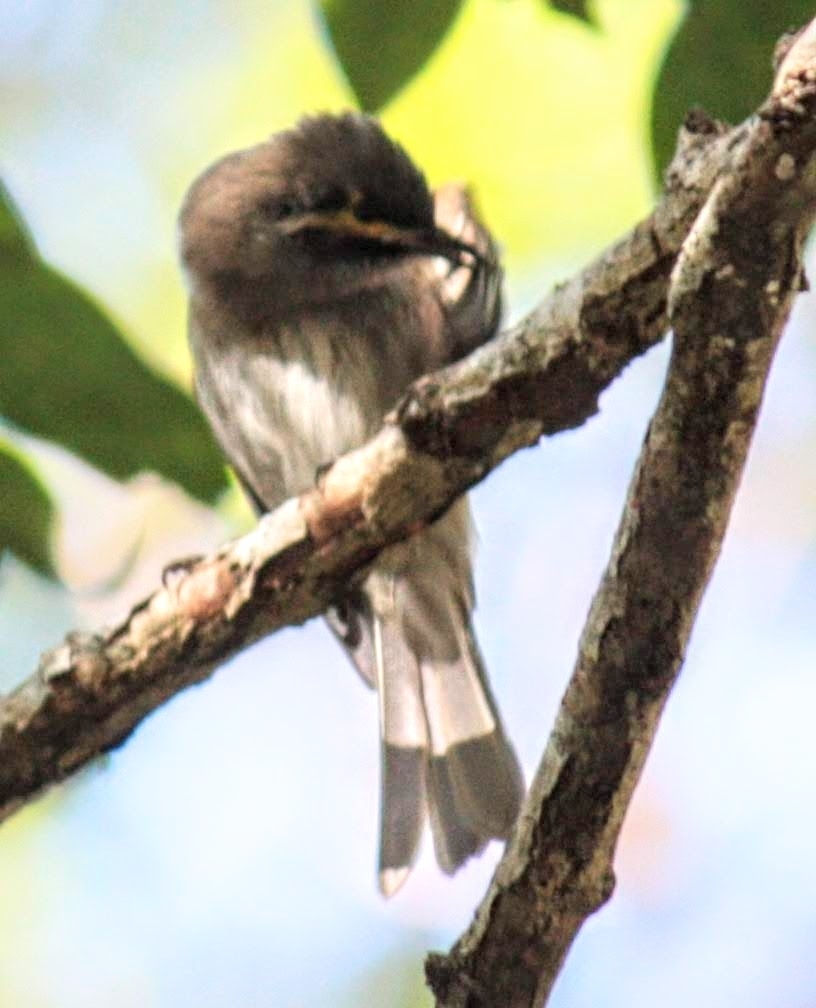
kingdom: Animalia
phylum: Chordata
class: Aves
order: Passeriformes
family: Meliphagidae
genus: Caligavis
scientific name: Caligavis chrysops
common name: Yellow-faced honeyeater
